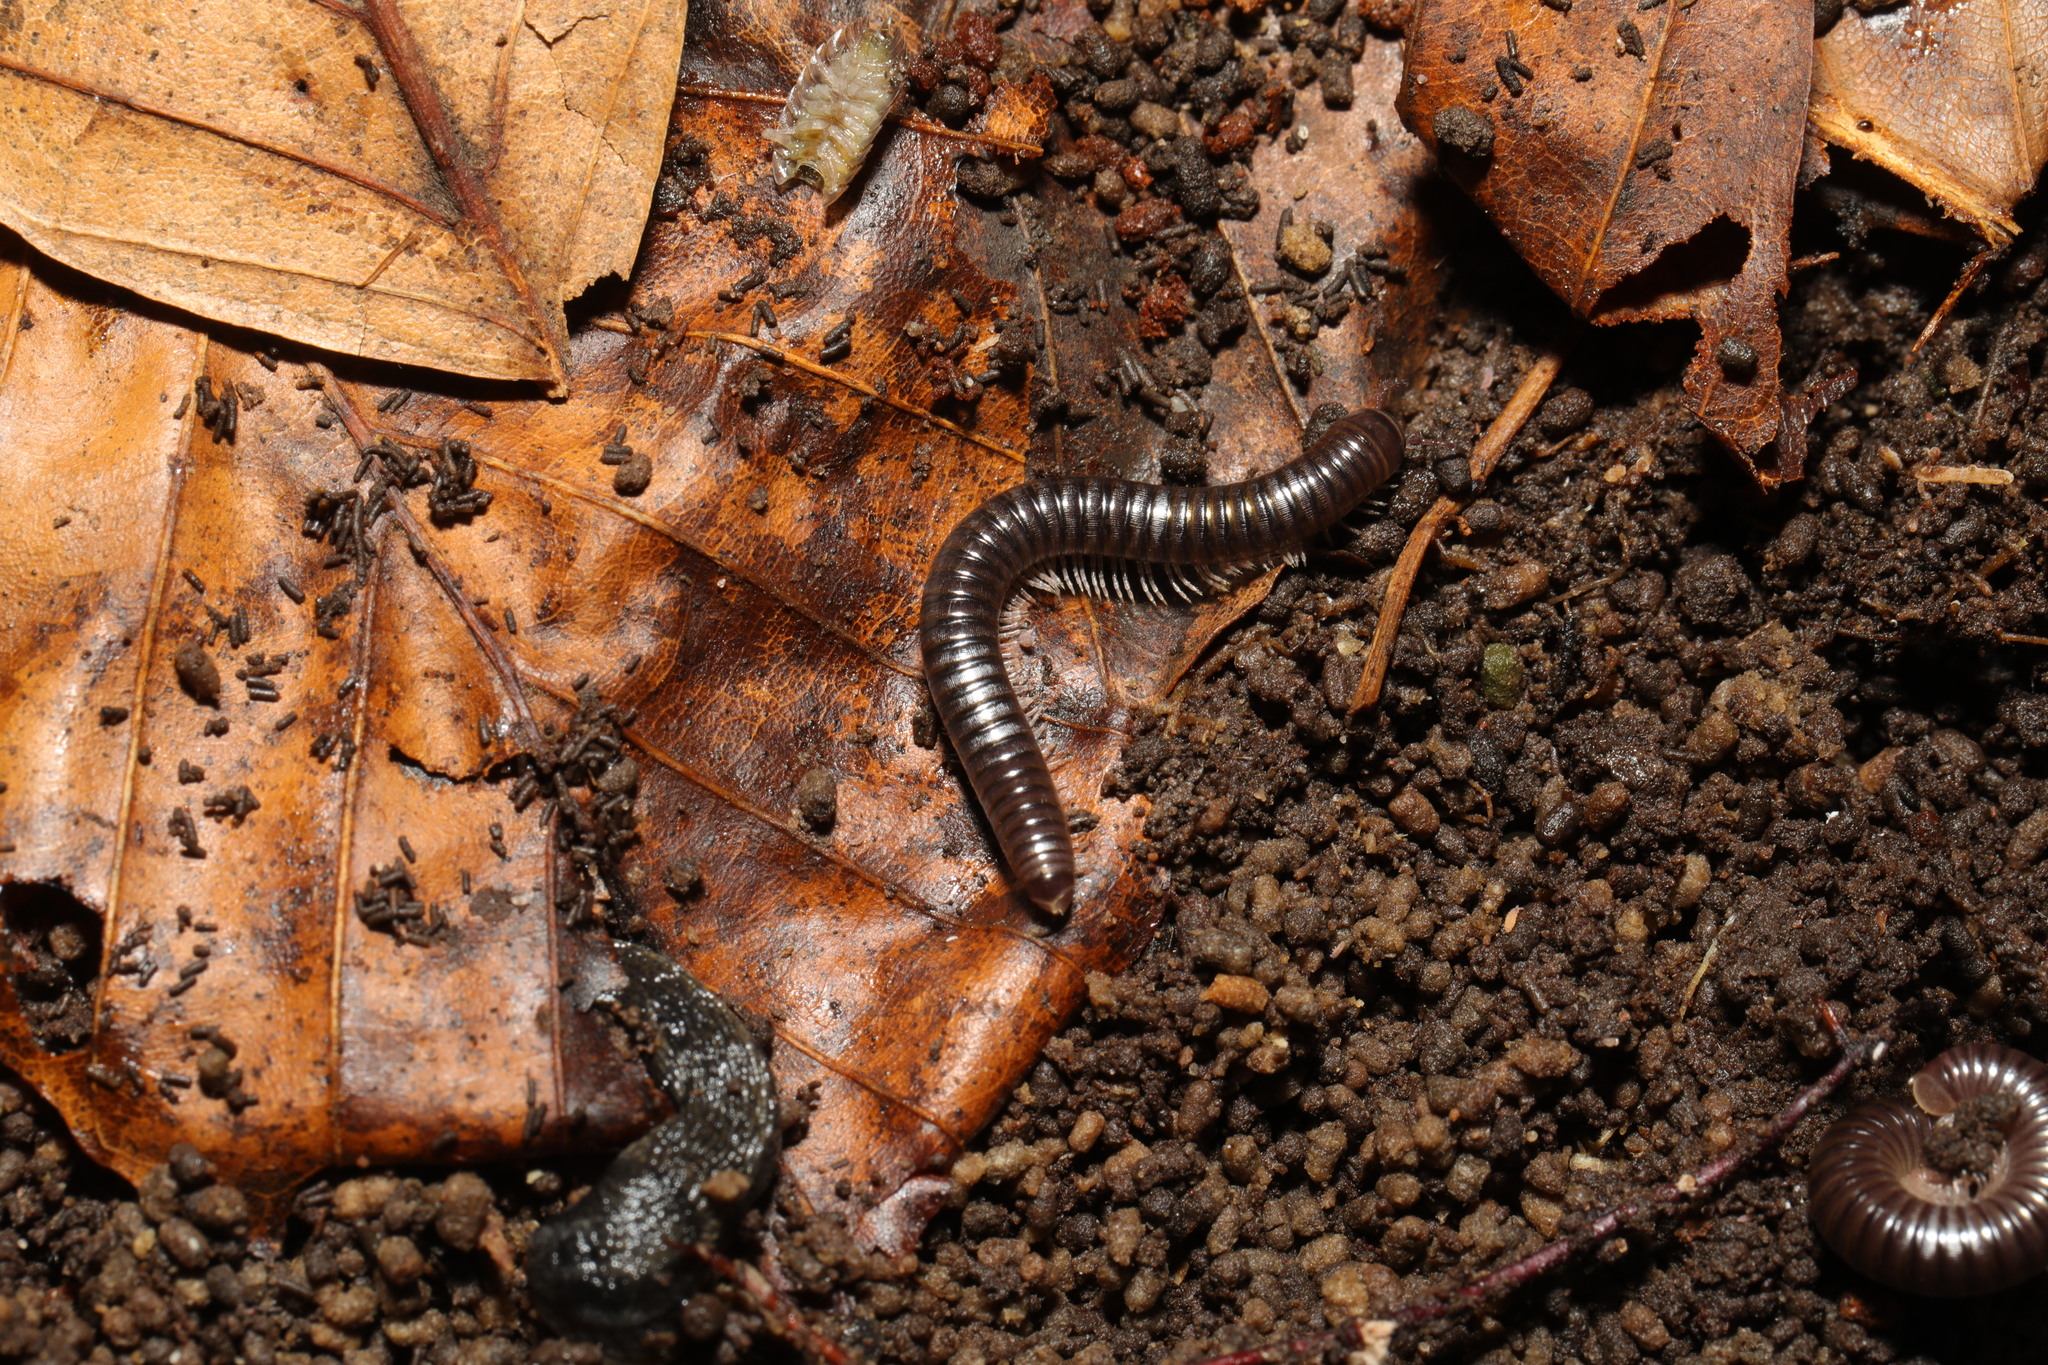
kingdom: Animalia
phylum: Arthropoda
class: Diplopoda
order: Julida
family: Julidae
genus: Cylindroiulus
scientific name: Cylindroiulus londinensis
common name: Black millipede
